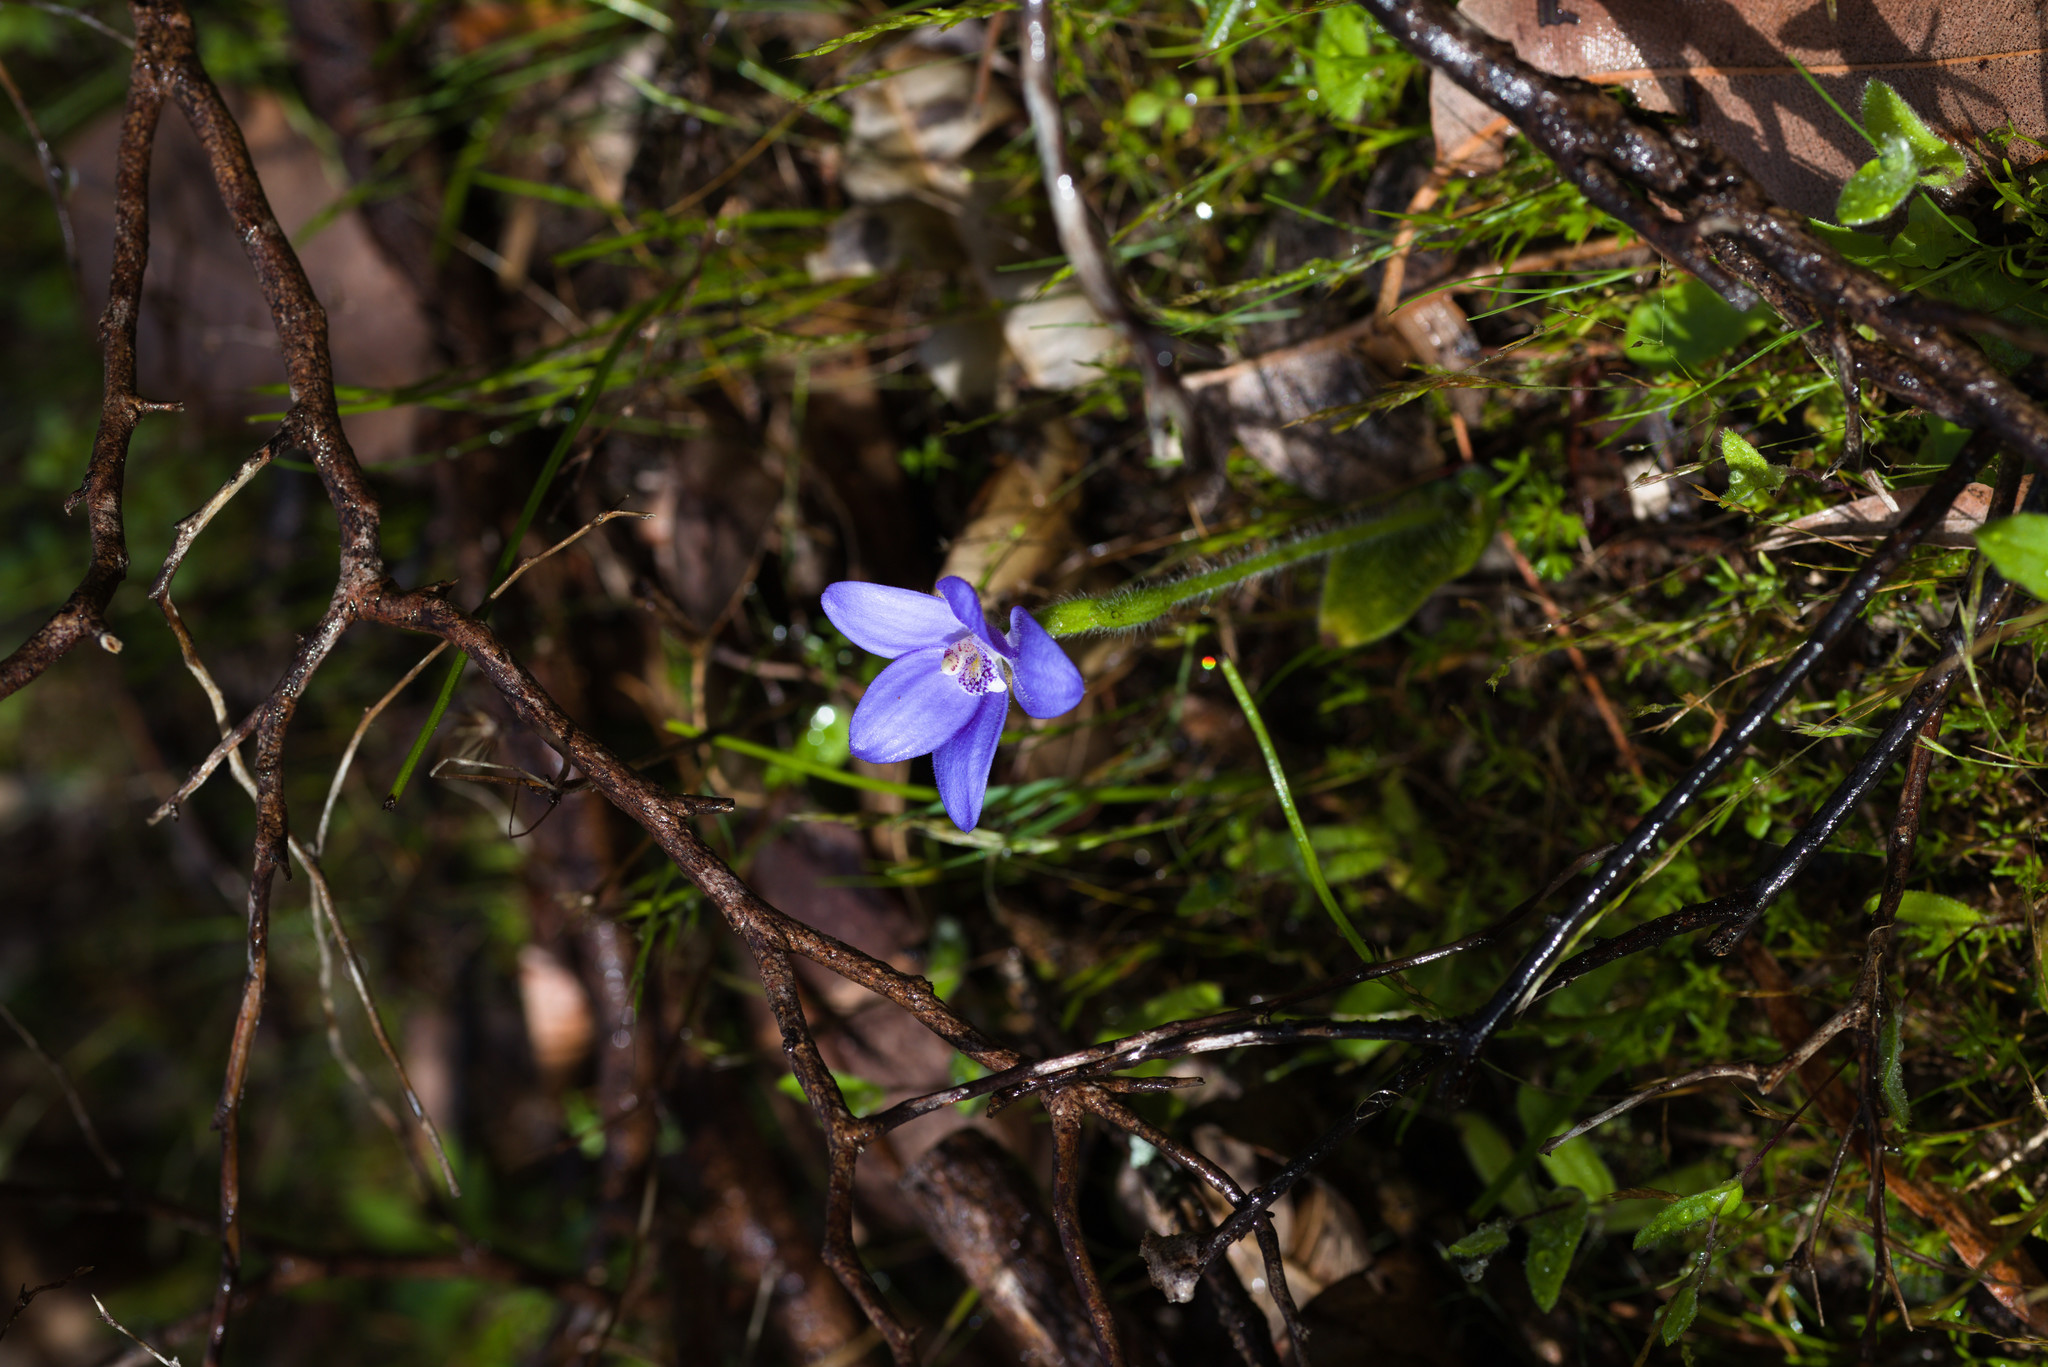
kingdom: Plantae
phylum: Tracheophyta
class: Liliopsida
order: Asparagales
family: Orchidaceae
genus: Caladenia
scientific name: Caladenia gemmata
